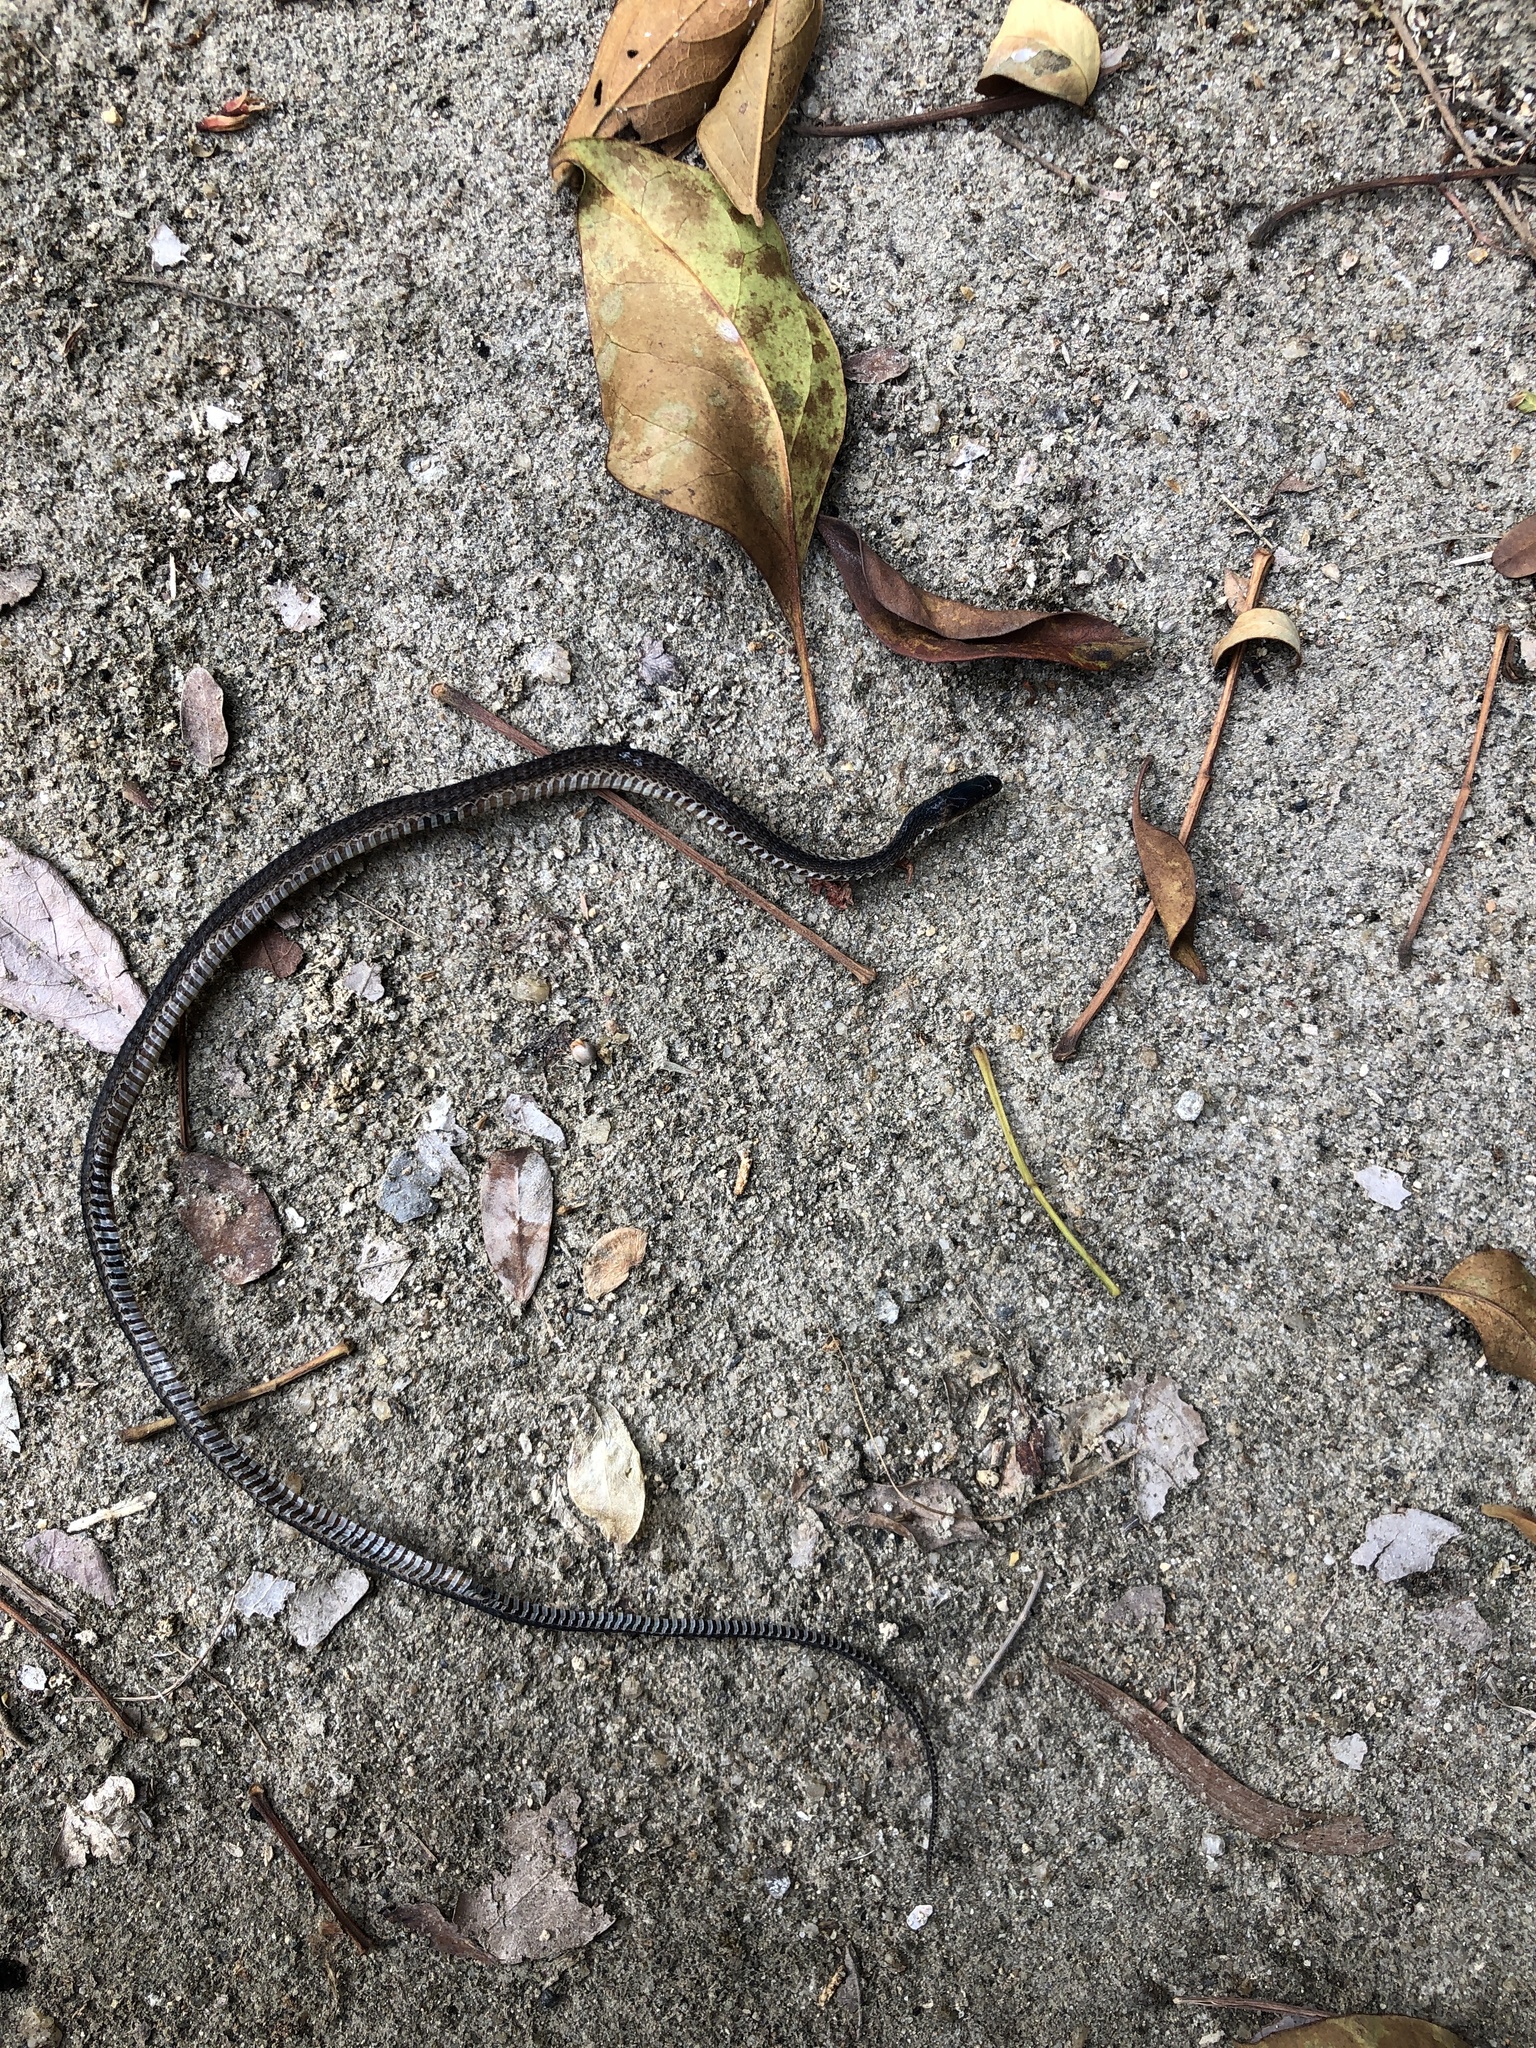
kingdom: Animalia
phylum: Chordata
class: Squamata
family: Xenodermidae
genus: Achalinus
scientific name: Achalinus rufescens
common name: Rufous burrowing snake
